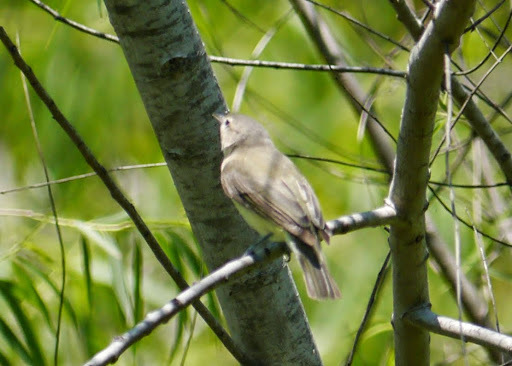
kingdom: Animalia
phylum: Chordata
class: Aves
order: Passeriformes
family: Vireonidae
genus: Vireo
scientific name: Vireo gilvus
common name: Warbling vireo
